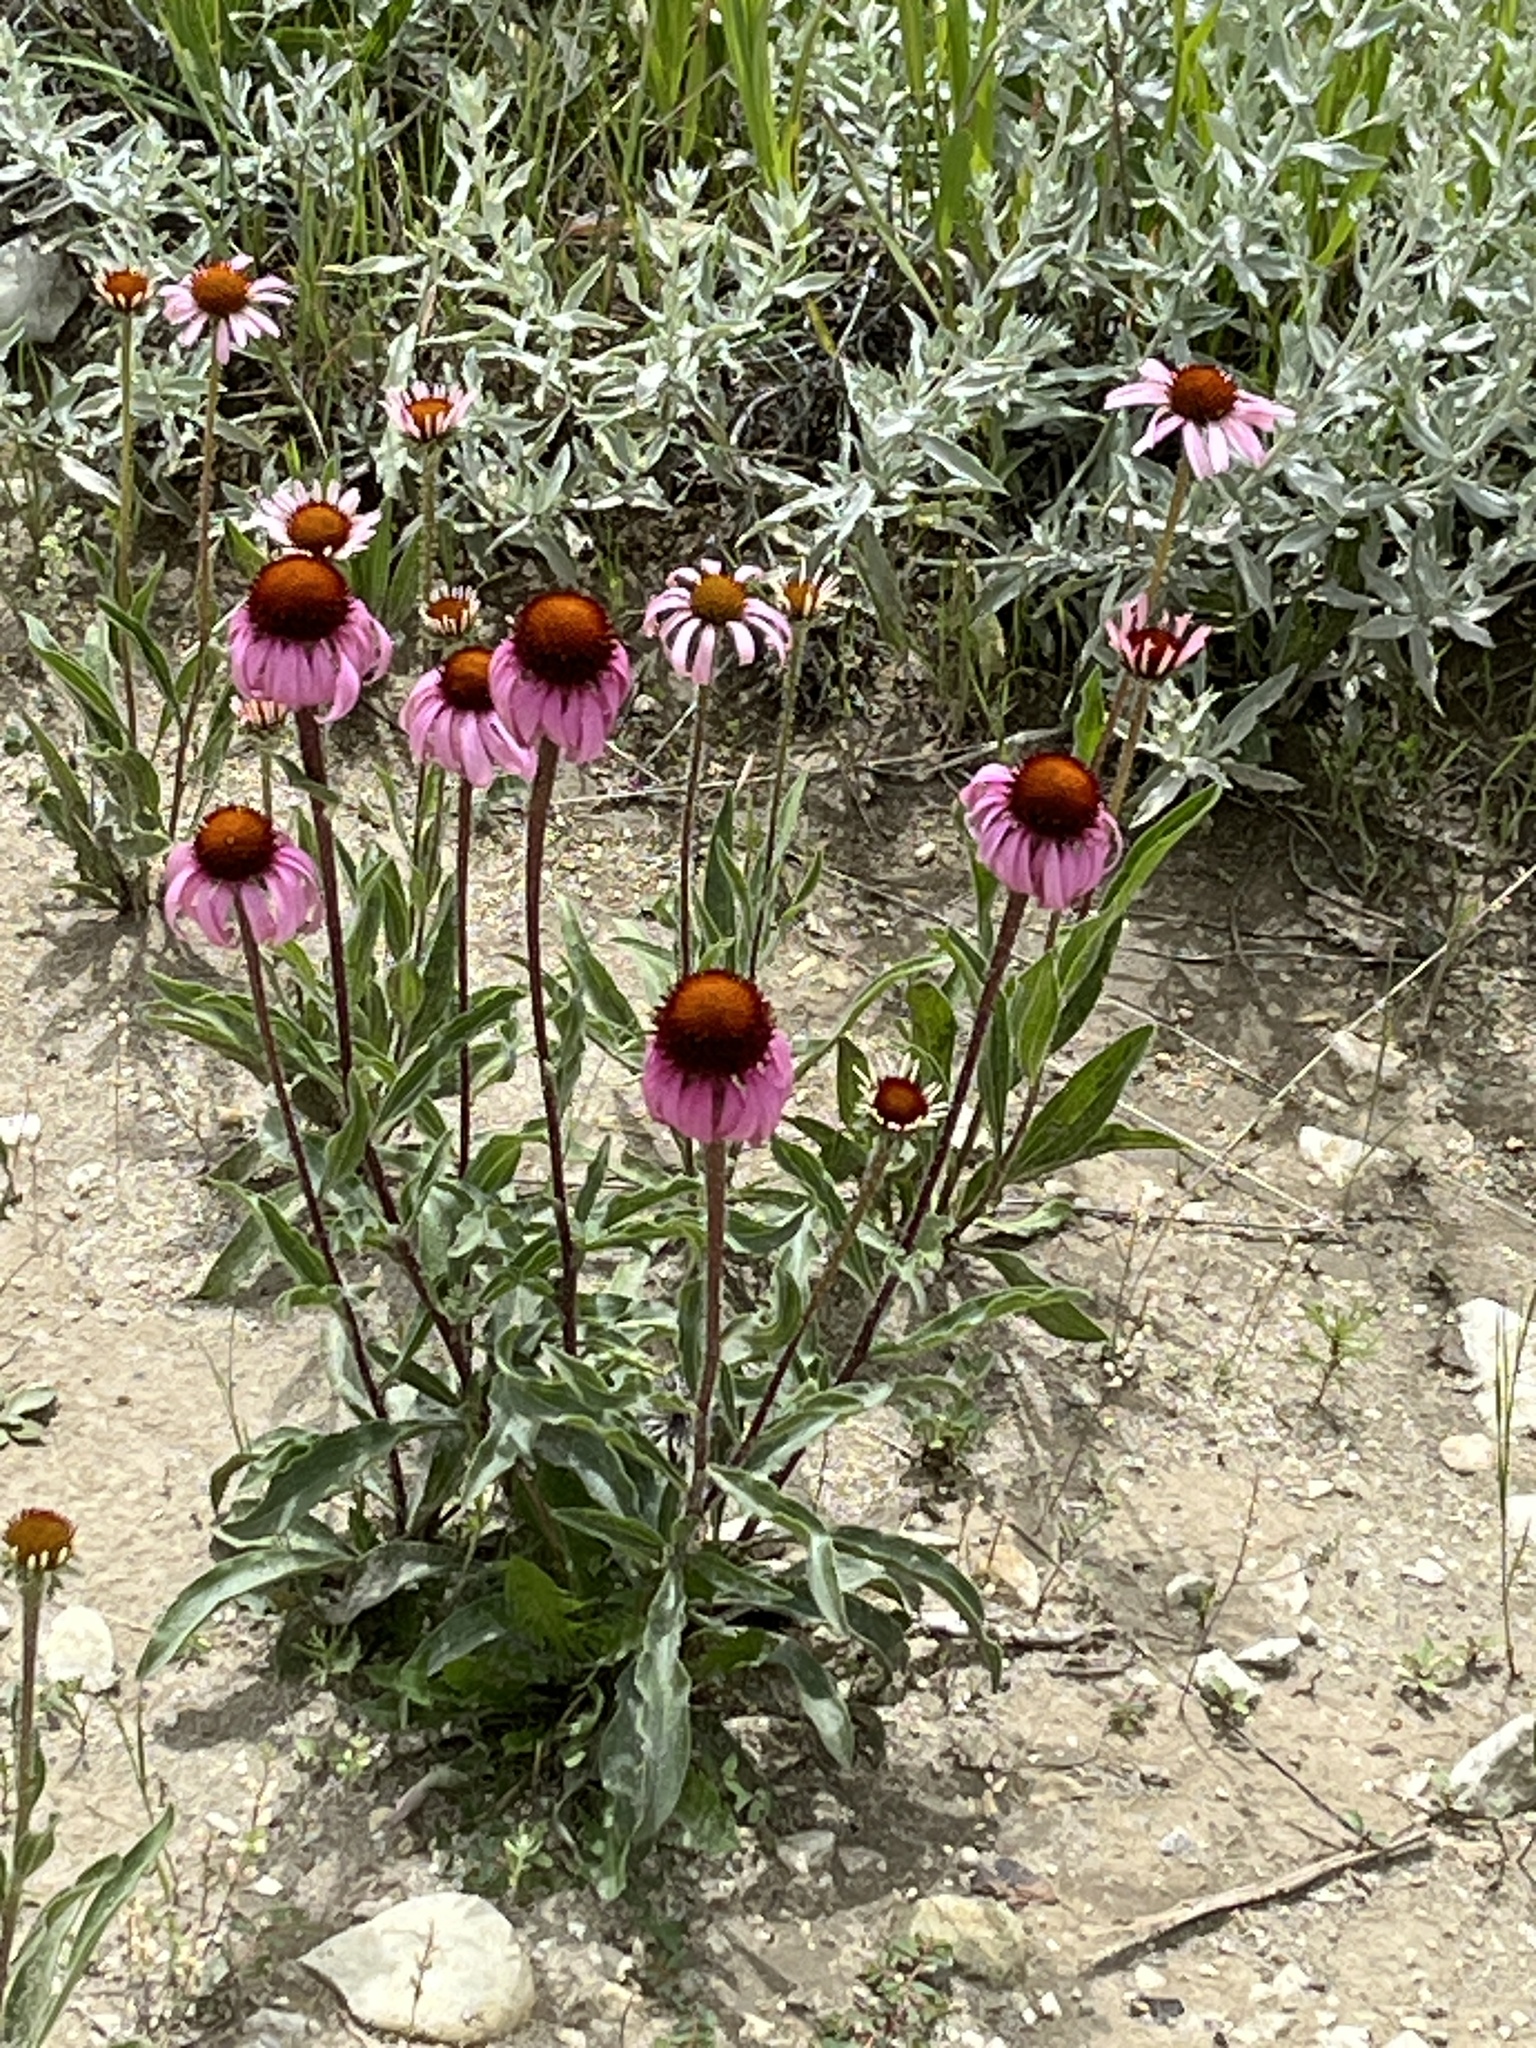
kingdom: Plantae
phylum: Tracheophyta
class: Magnoliopsida
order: Asterales
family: Asteraceae
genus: Echinacea
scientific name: Echinacea angustifolia
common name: Black-sampson echinacea
